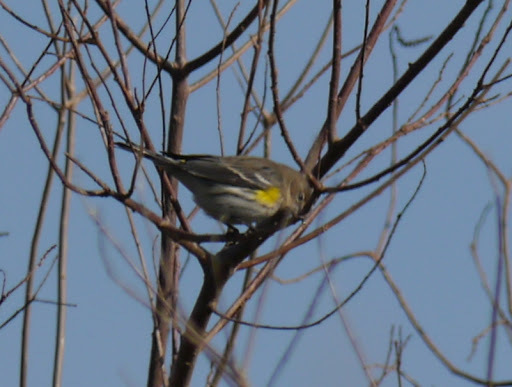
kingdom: Animalia
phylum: Chordata
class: Aves
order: Passeriformes
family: Parulidae
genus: Setophaga
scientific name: Setophaga coronata
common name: Myrtle warbler
